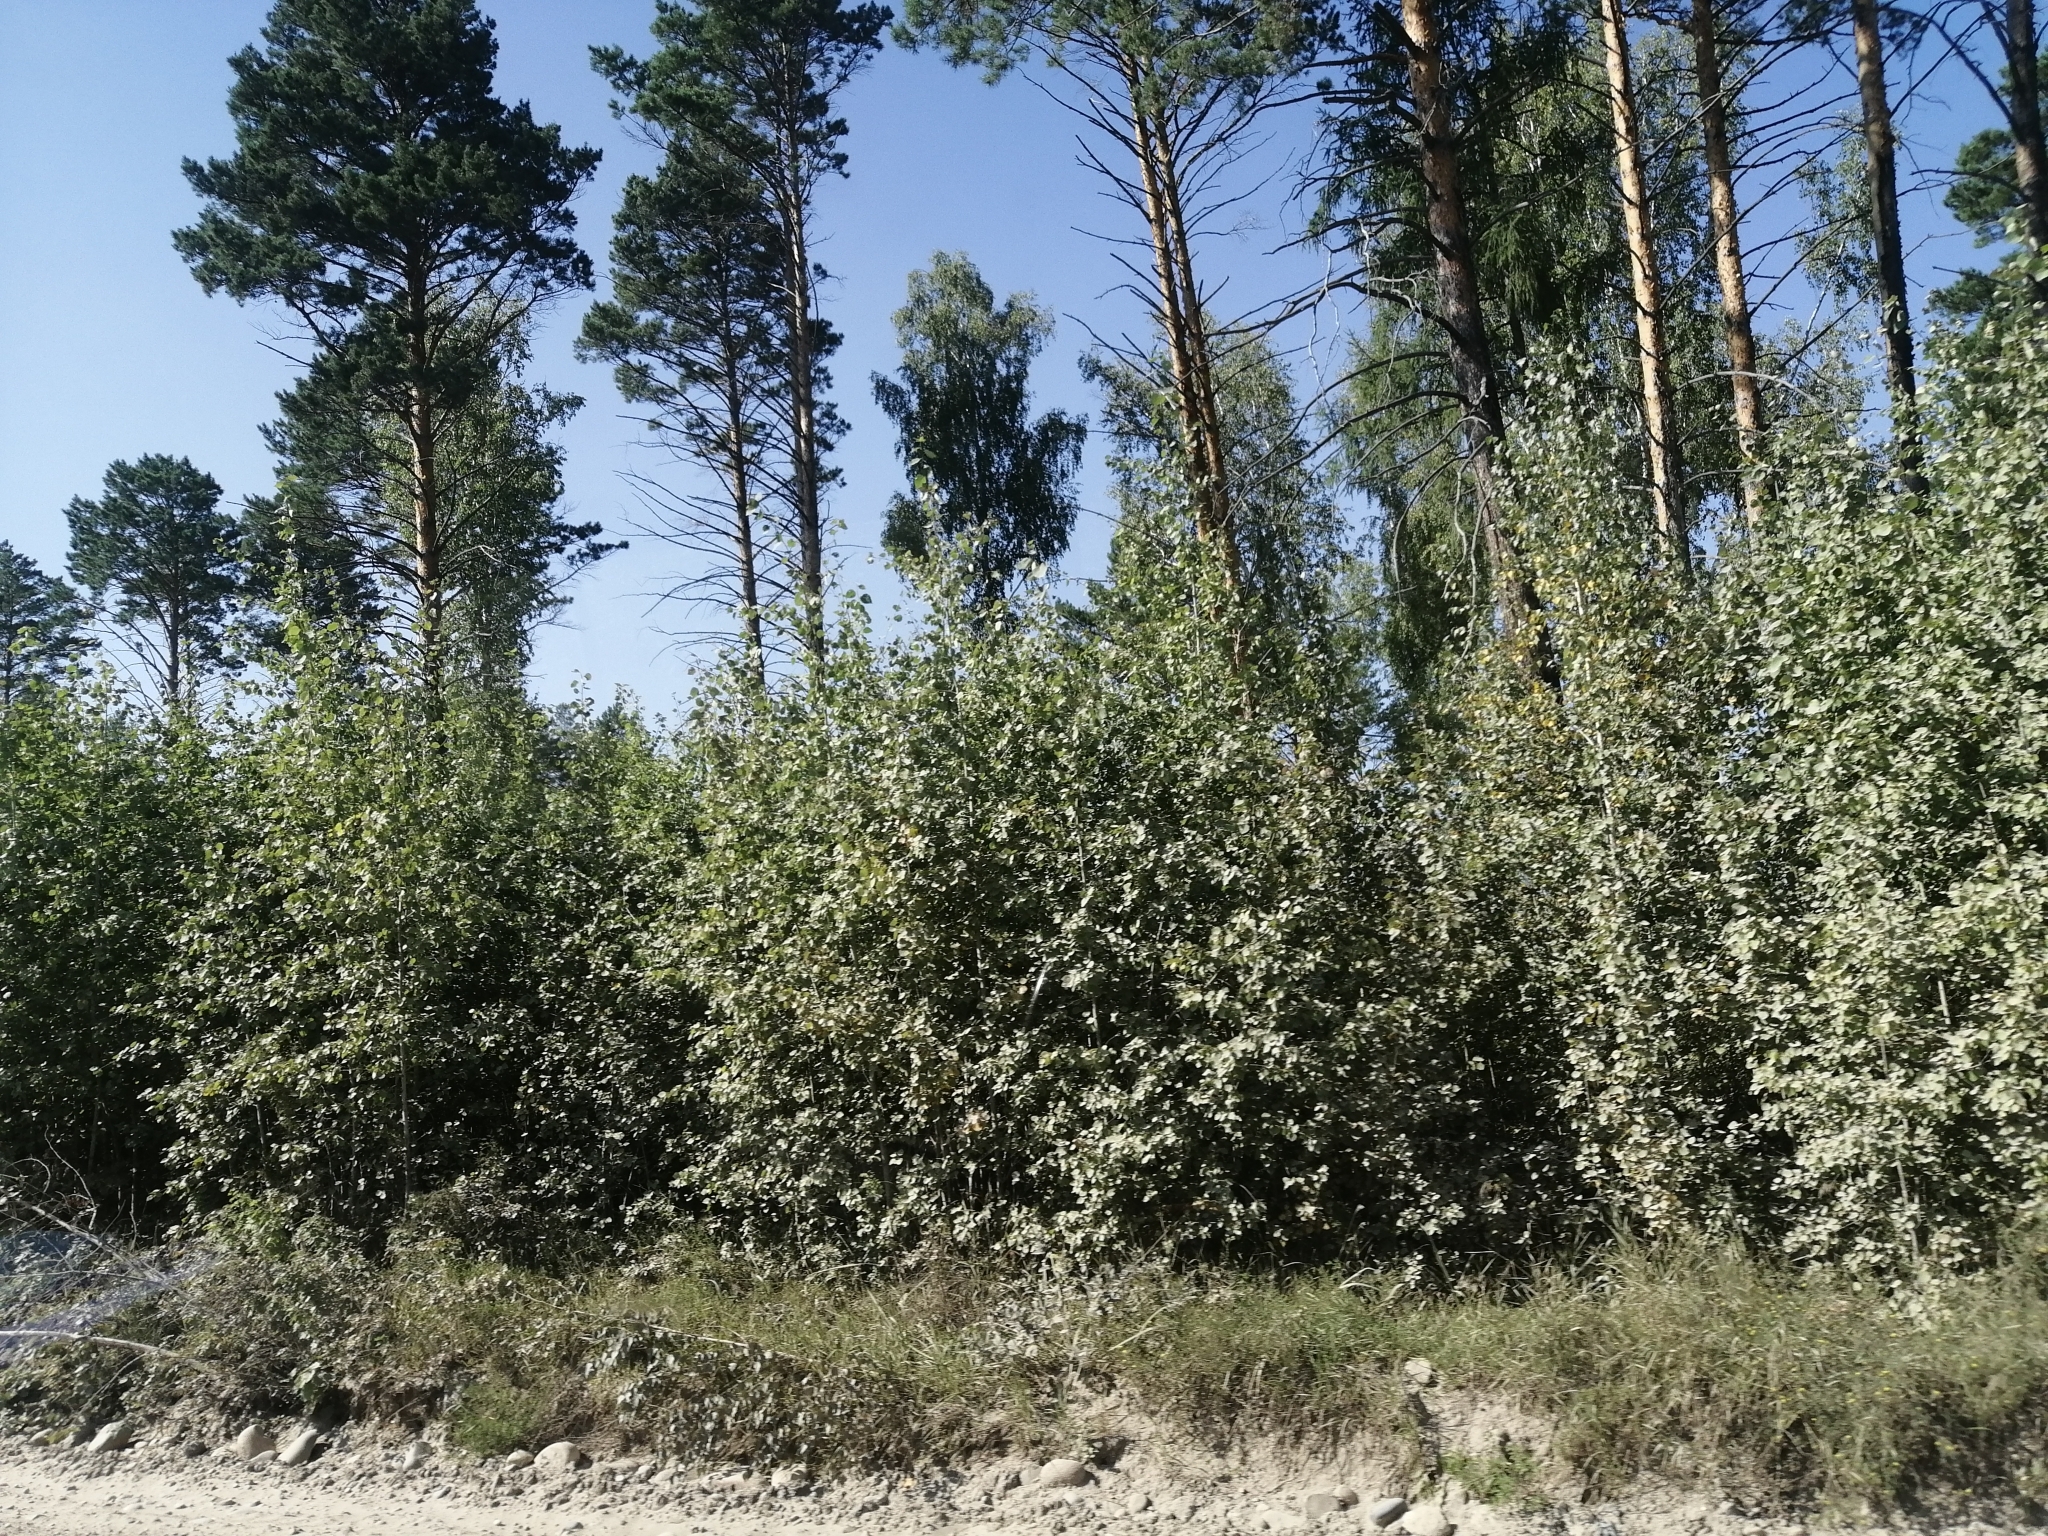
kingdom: Plantae
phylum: Tracheophyta
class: Pinopsida
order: Pinales
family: Pinaceae
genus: Pinus
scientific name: Pinus sylvestris
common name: Scots pine
